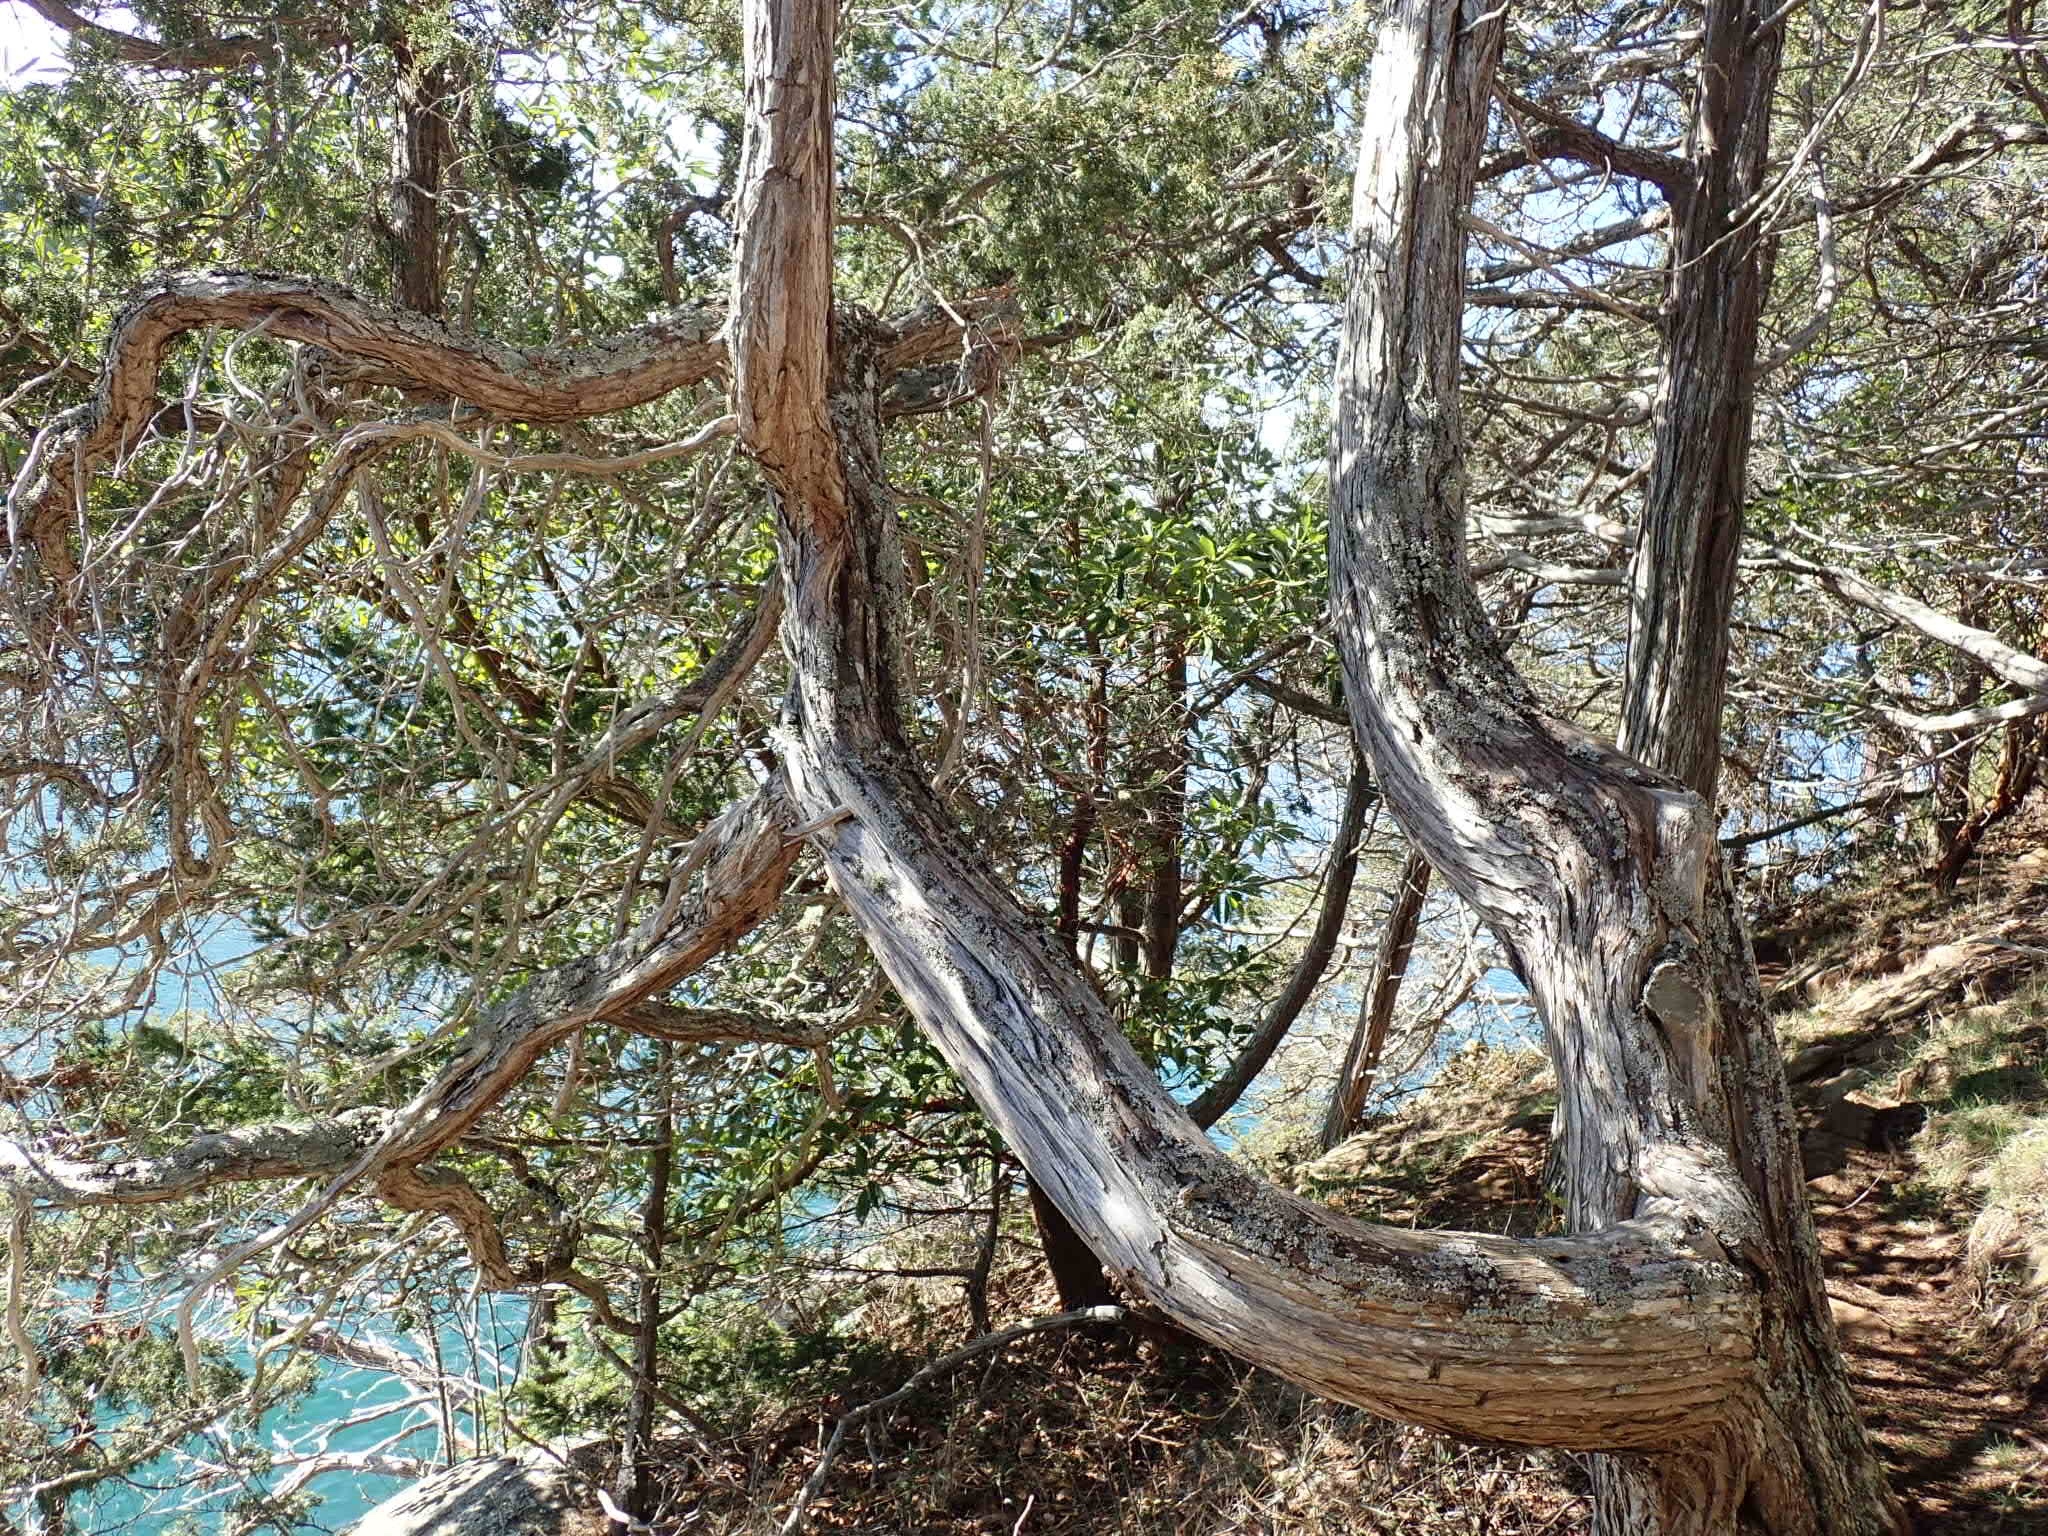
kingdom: Fungi
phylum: Ascomycota
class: Lecanoromycetes
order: Lecanorales
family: Parmeliaceae
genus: Parmelia
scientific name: Parmelia sulcata
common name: Netted shield lichen
